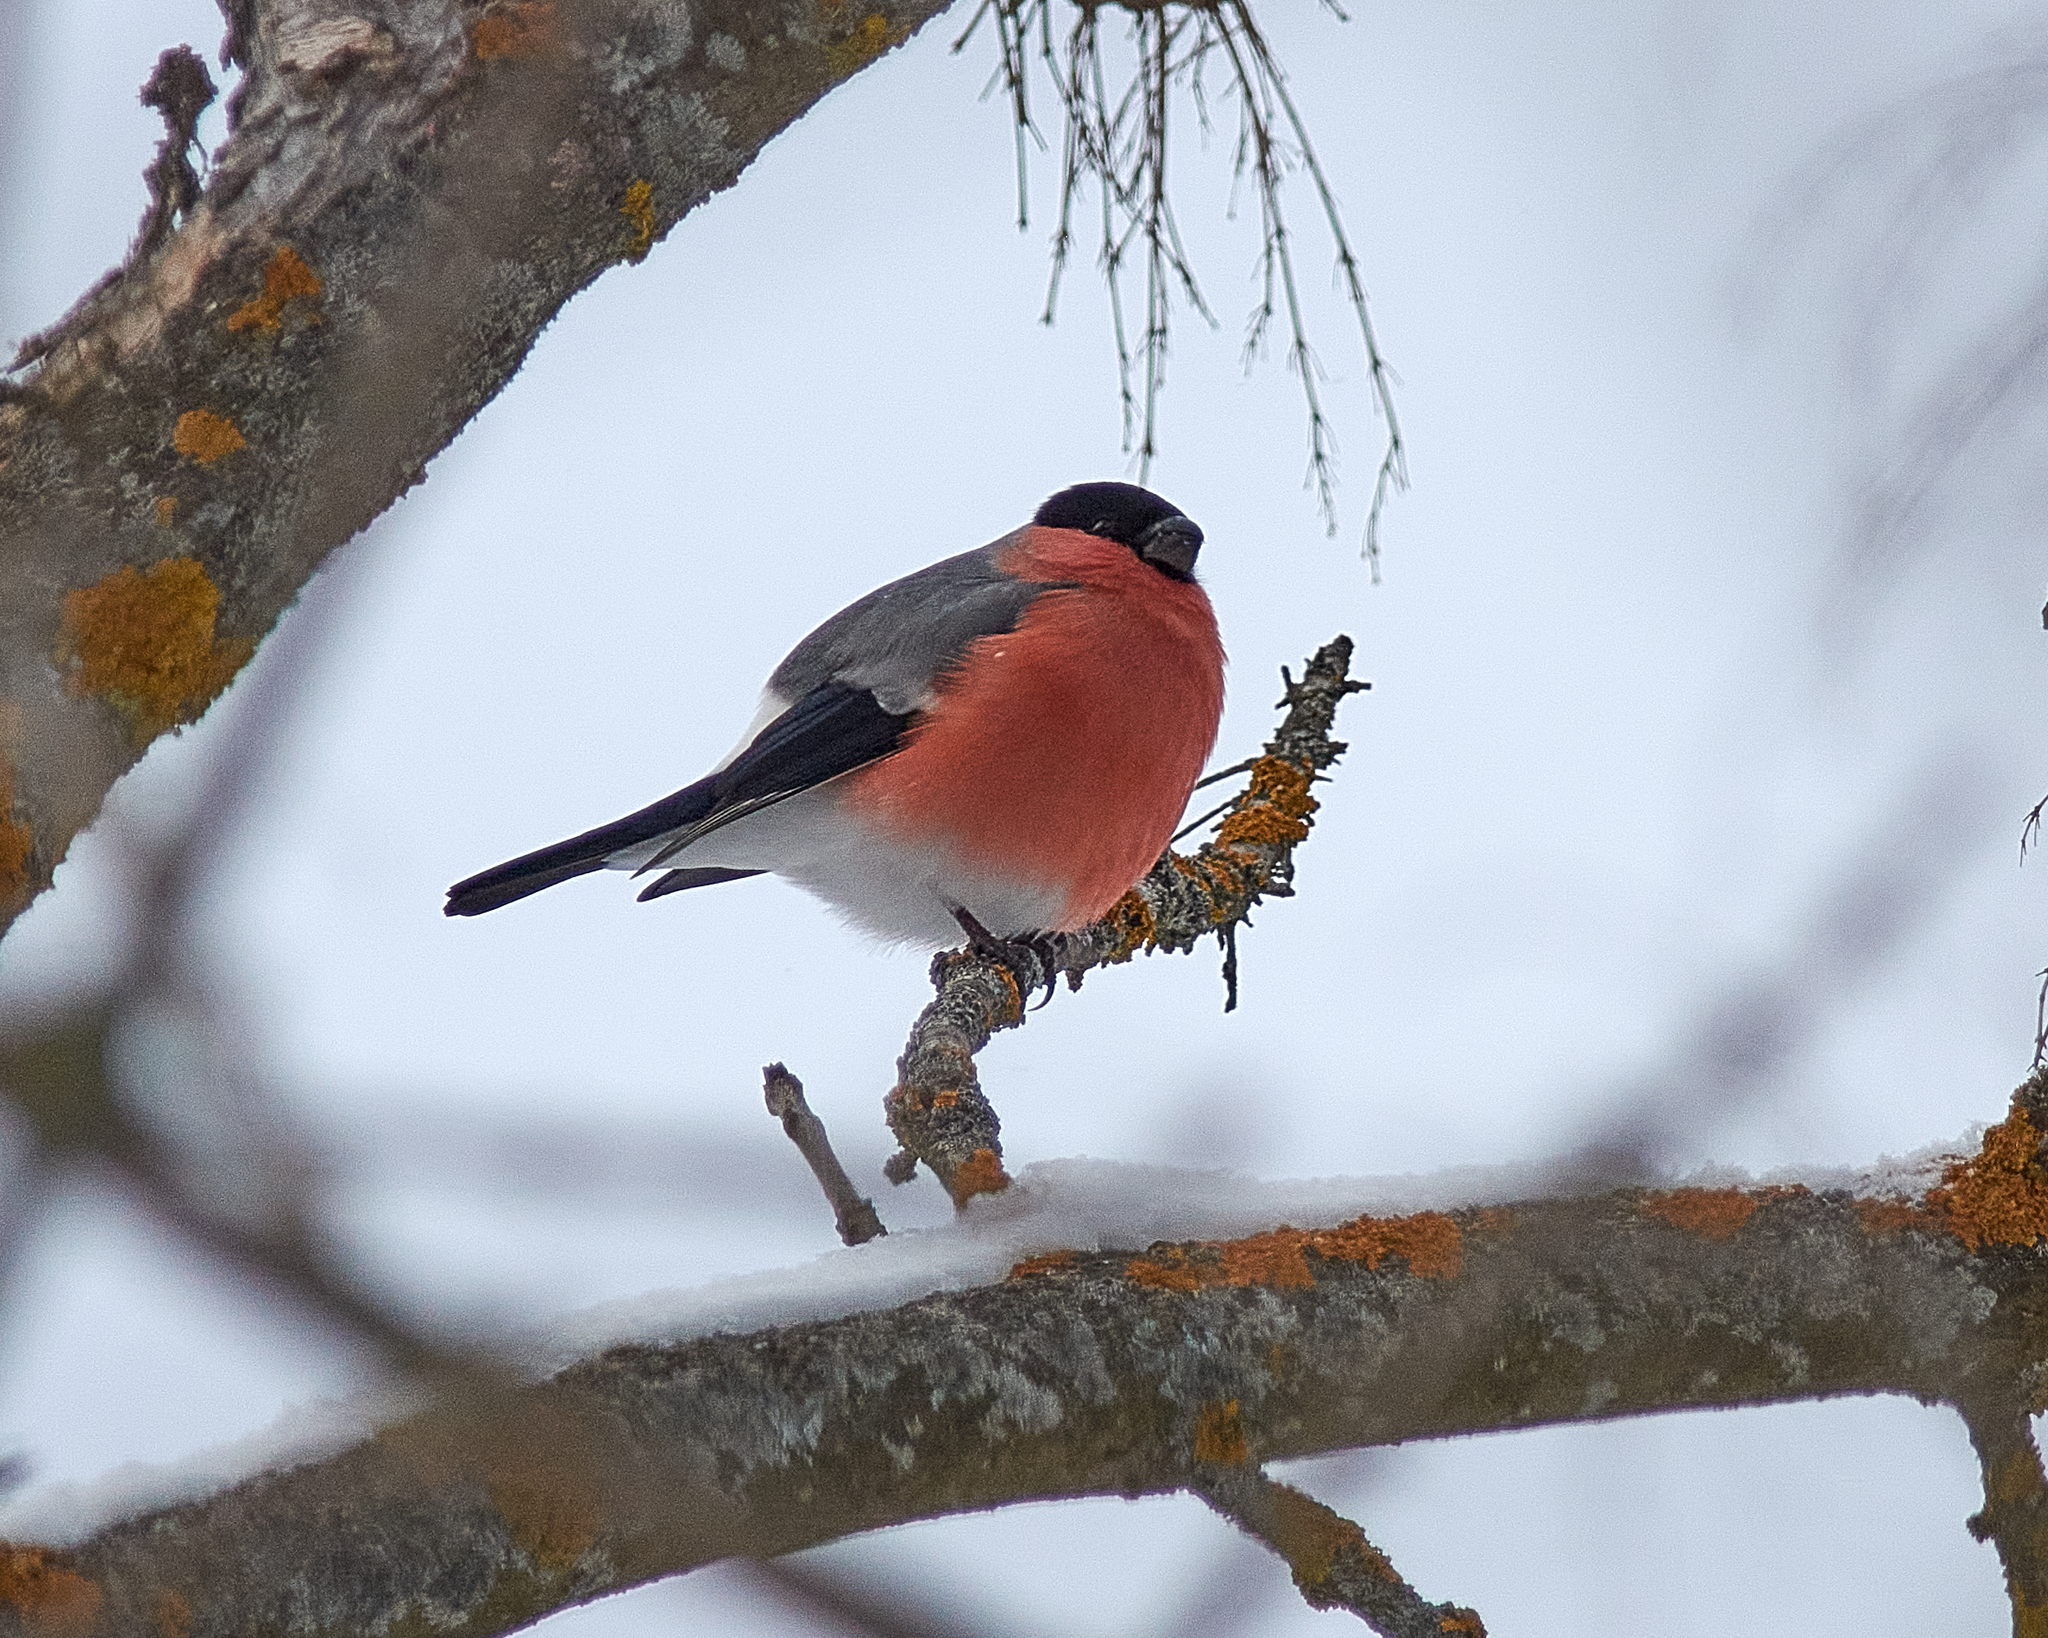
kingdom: Animalia
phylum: Chordata
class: Aves
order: Passeriformes
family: Fringillidae
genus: Pyrrhula
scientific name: Pyrrhula pyrrhula
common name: Eurasian bullfinch
